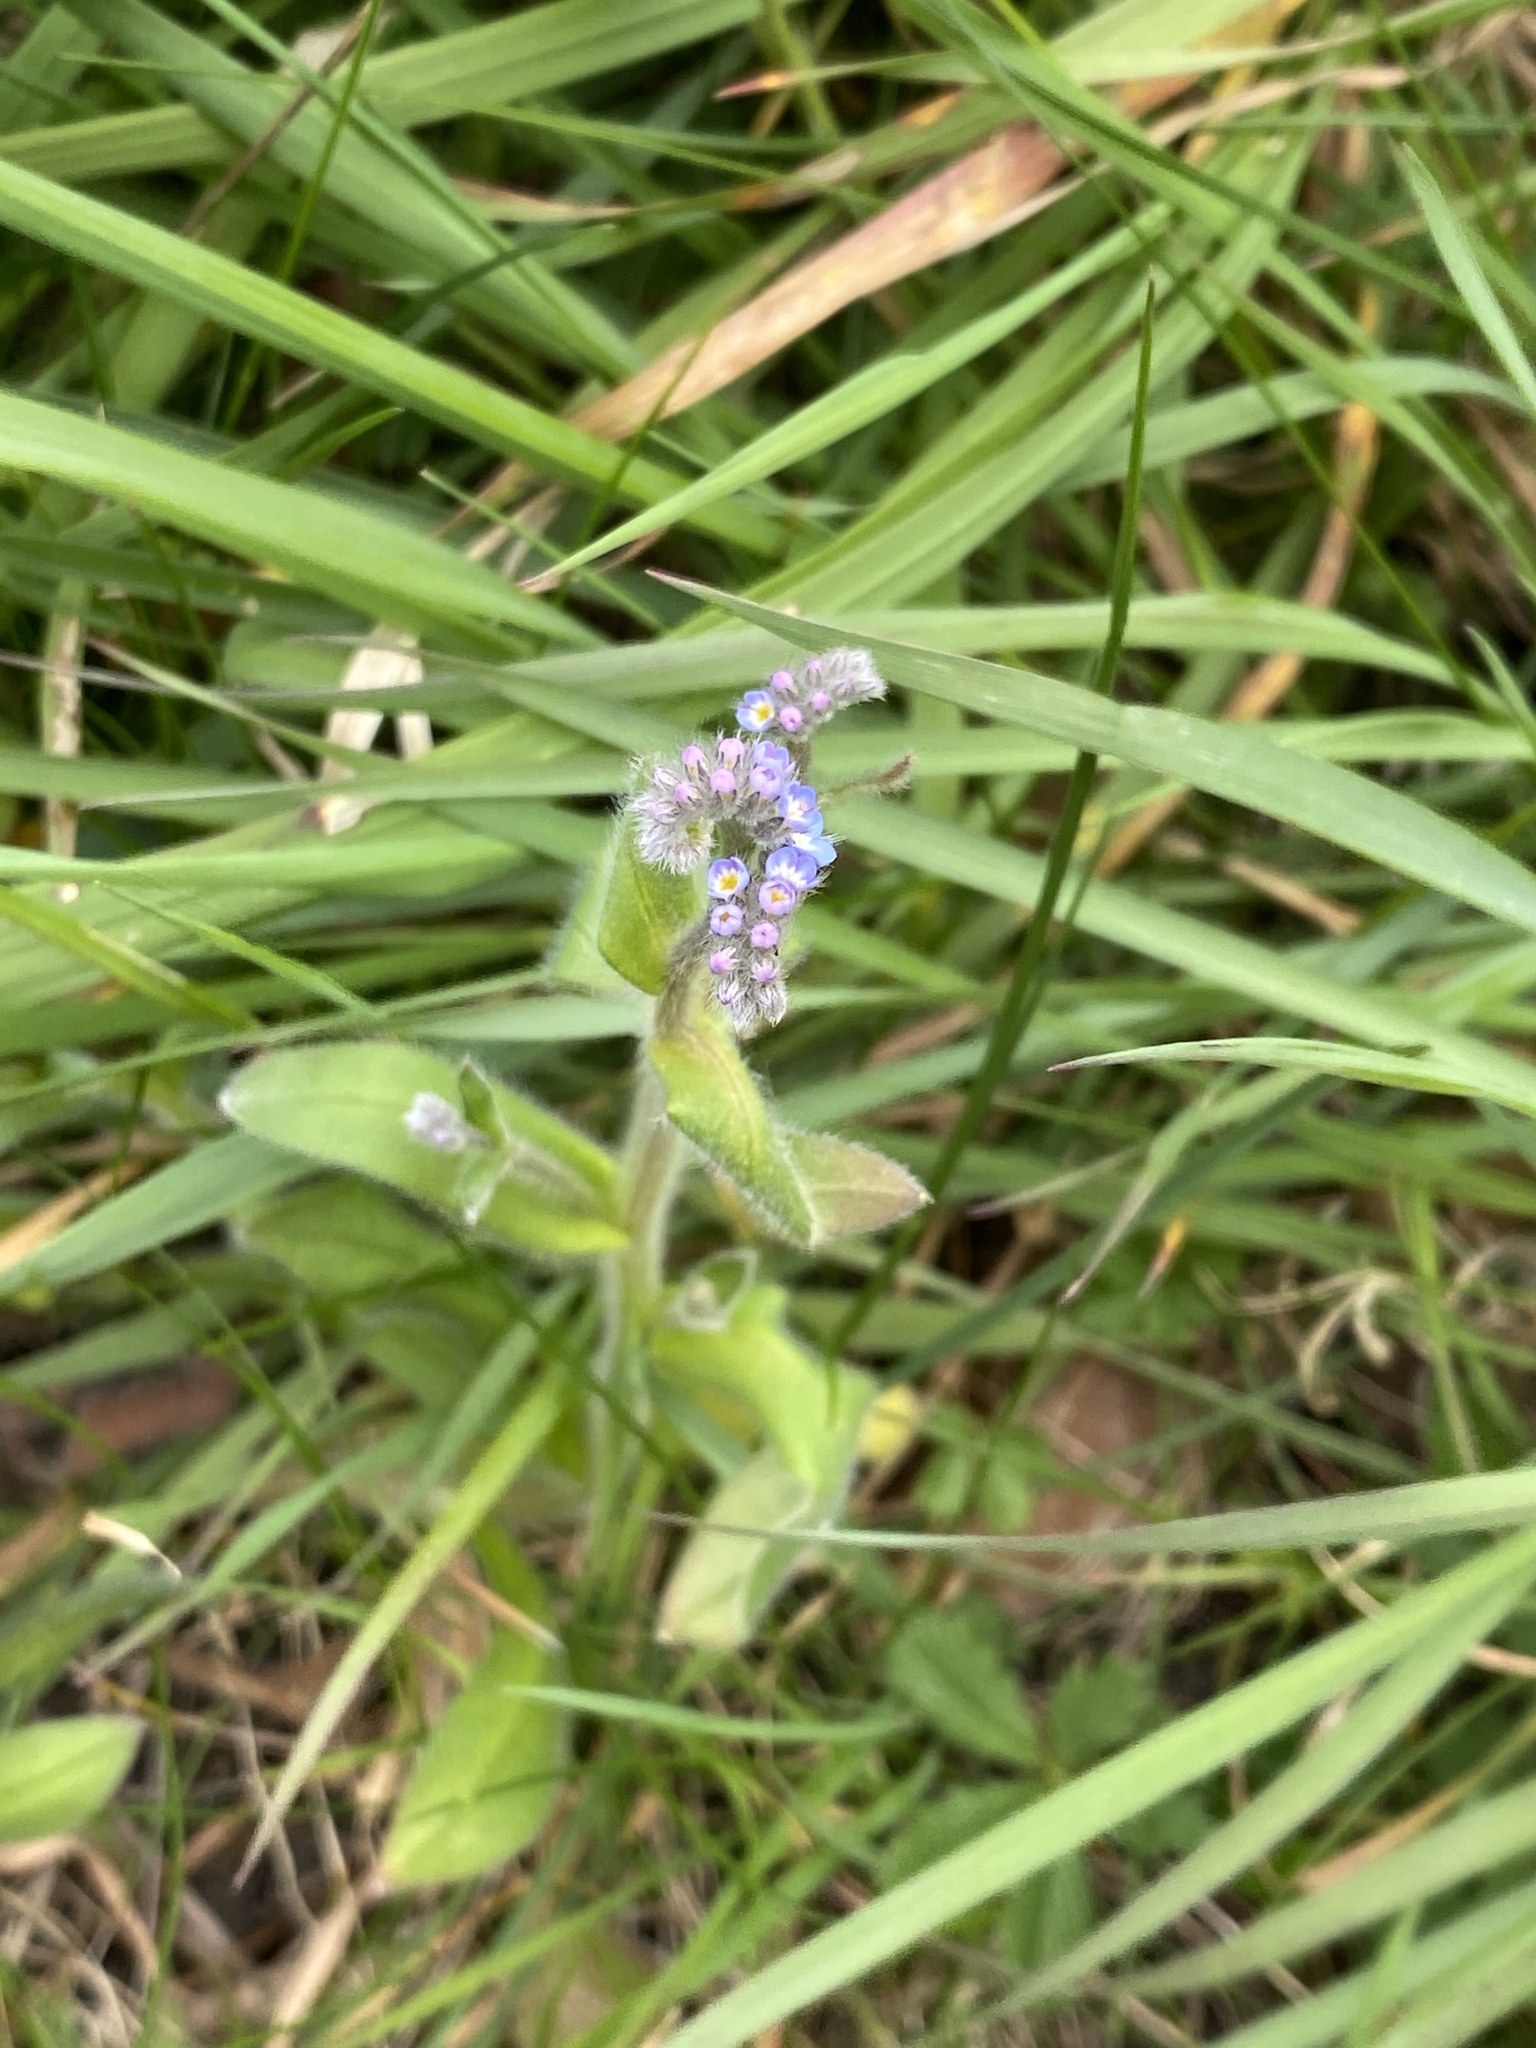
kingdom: Plantae
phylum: Tracheophyta
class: Magnoliopsida
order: Boraginales
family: Boraginaceae
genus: Myosotis
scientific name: Myosotis arvensis
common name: Field forget-me-not
